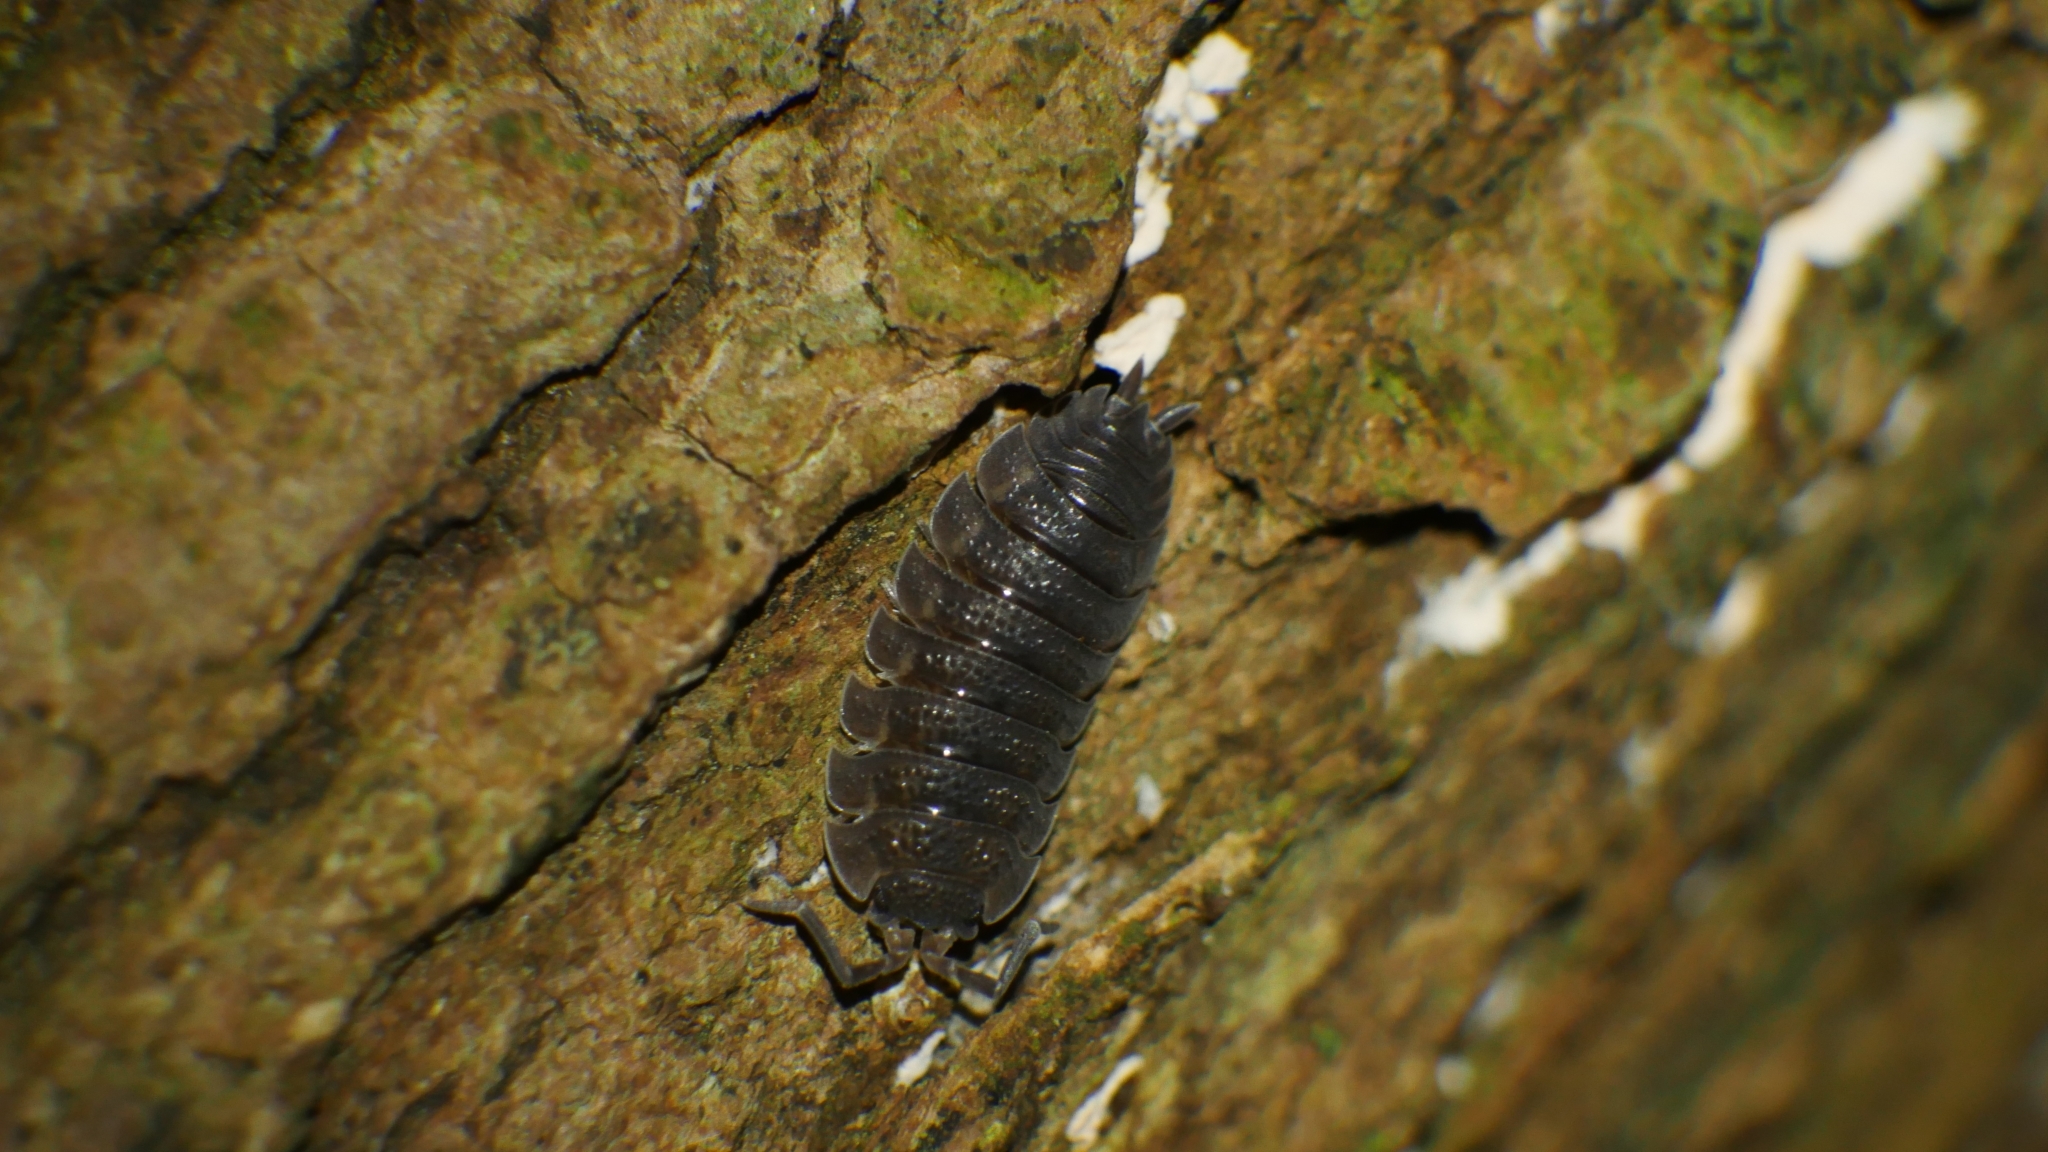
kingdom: Animalia
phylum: Arthropoda
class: Malacostraca
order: Isopoda
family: Porcellionidae
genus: Porcellio
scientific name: Porcellio scaber
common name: Common rough woodlouse
